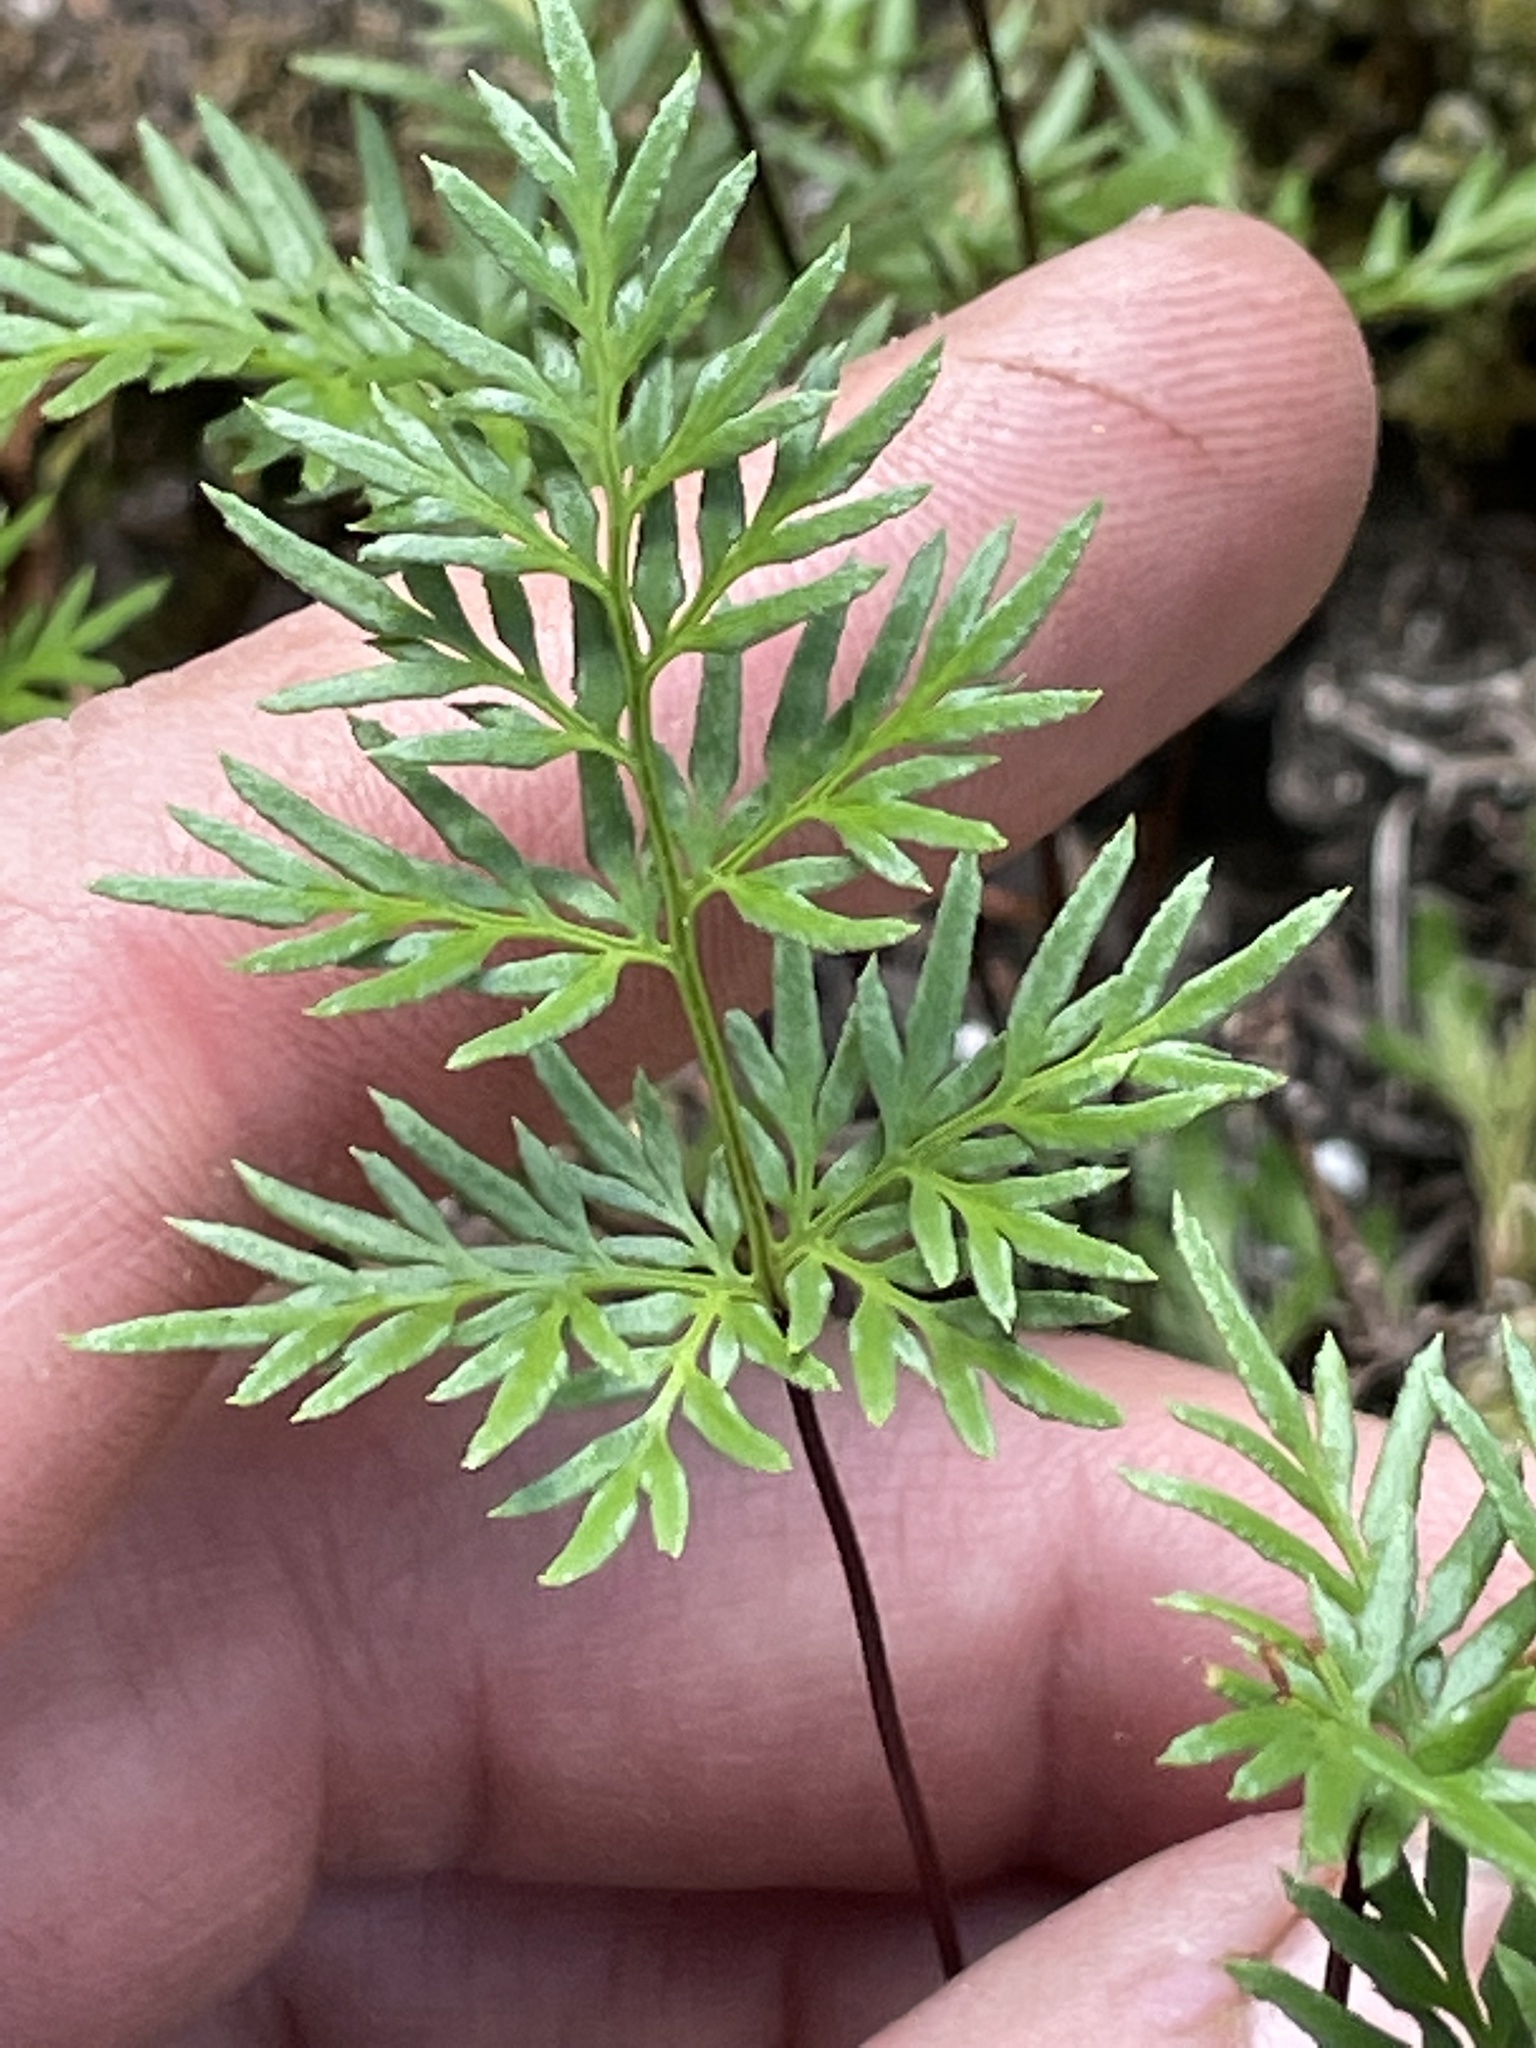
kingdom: Plantae
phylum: Tracheophyta
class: Polypodiopsida
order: Polypodiales
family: Pteridaceae
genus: Aspidotis
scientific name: Aspidotis densa
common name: Indian's dream
